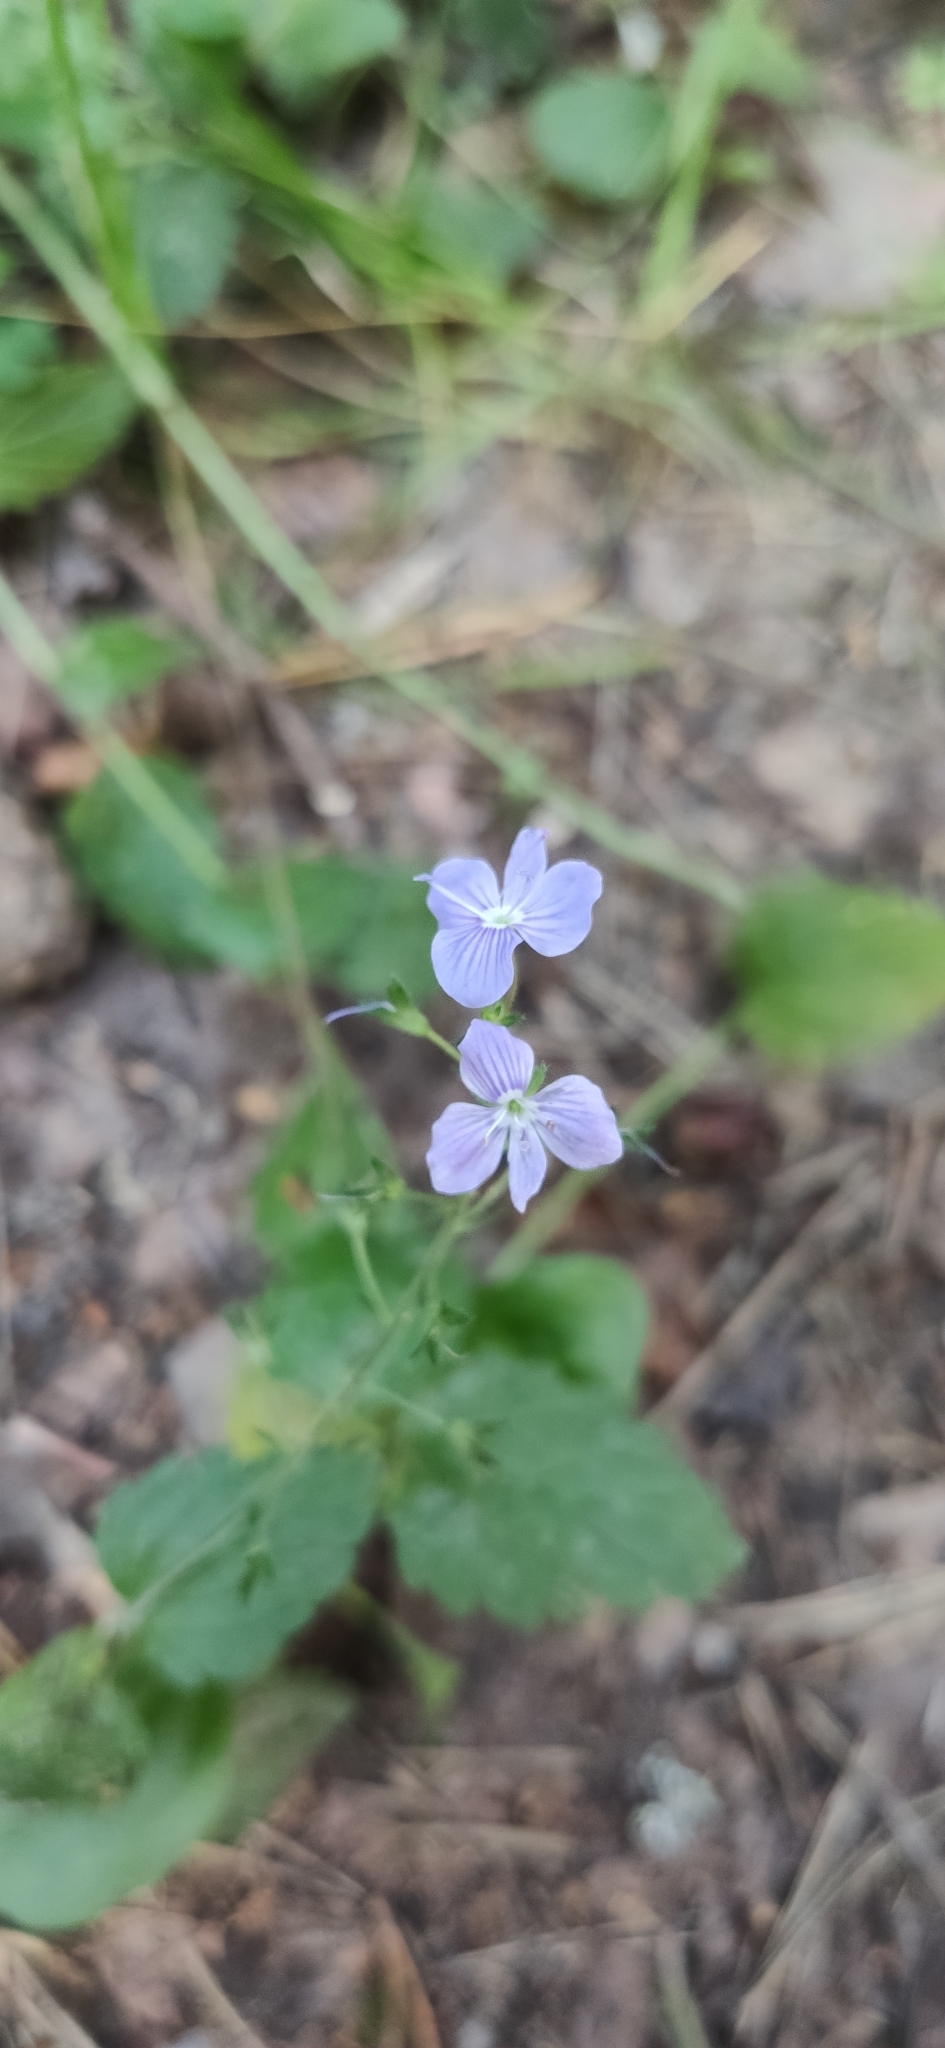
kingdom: Plantae
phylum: Tracheophyta
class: Magnoliopsida
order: Lamiales
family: Plantaginaceae
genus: Veronica
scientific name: Veronica chamaedrys
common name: Germander speedwell
